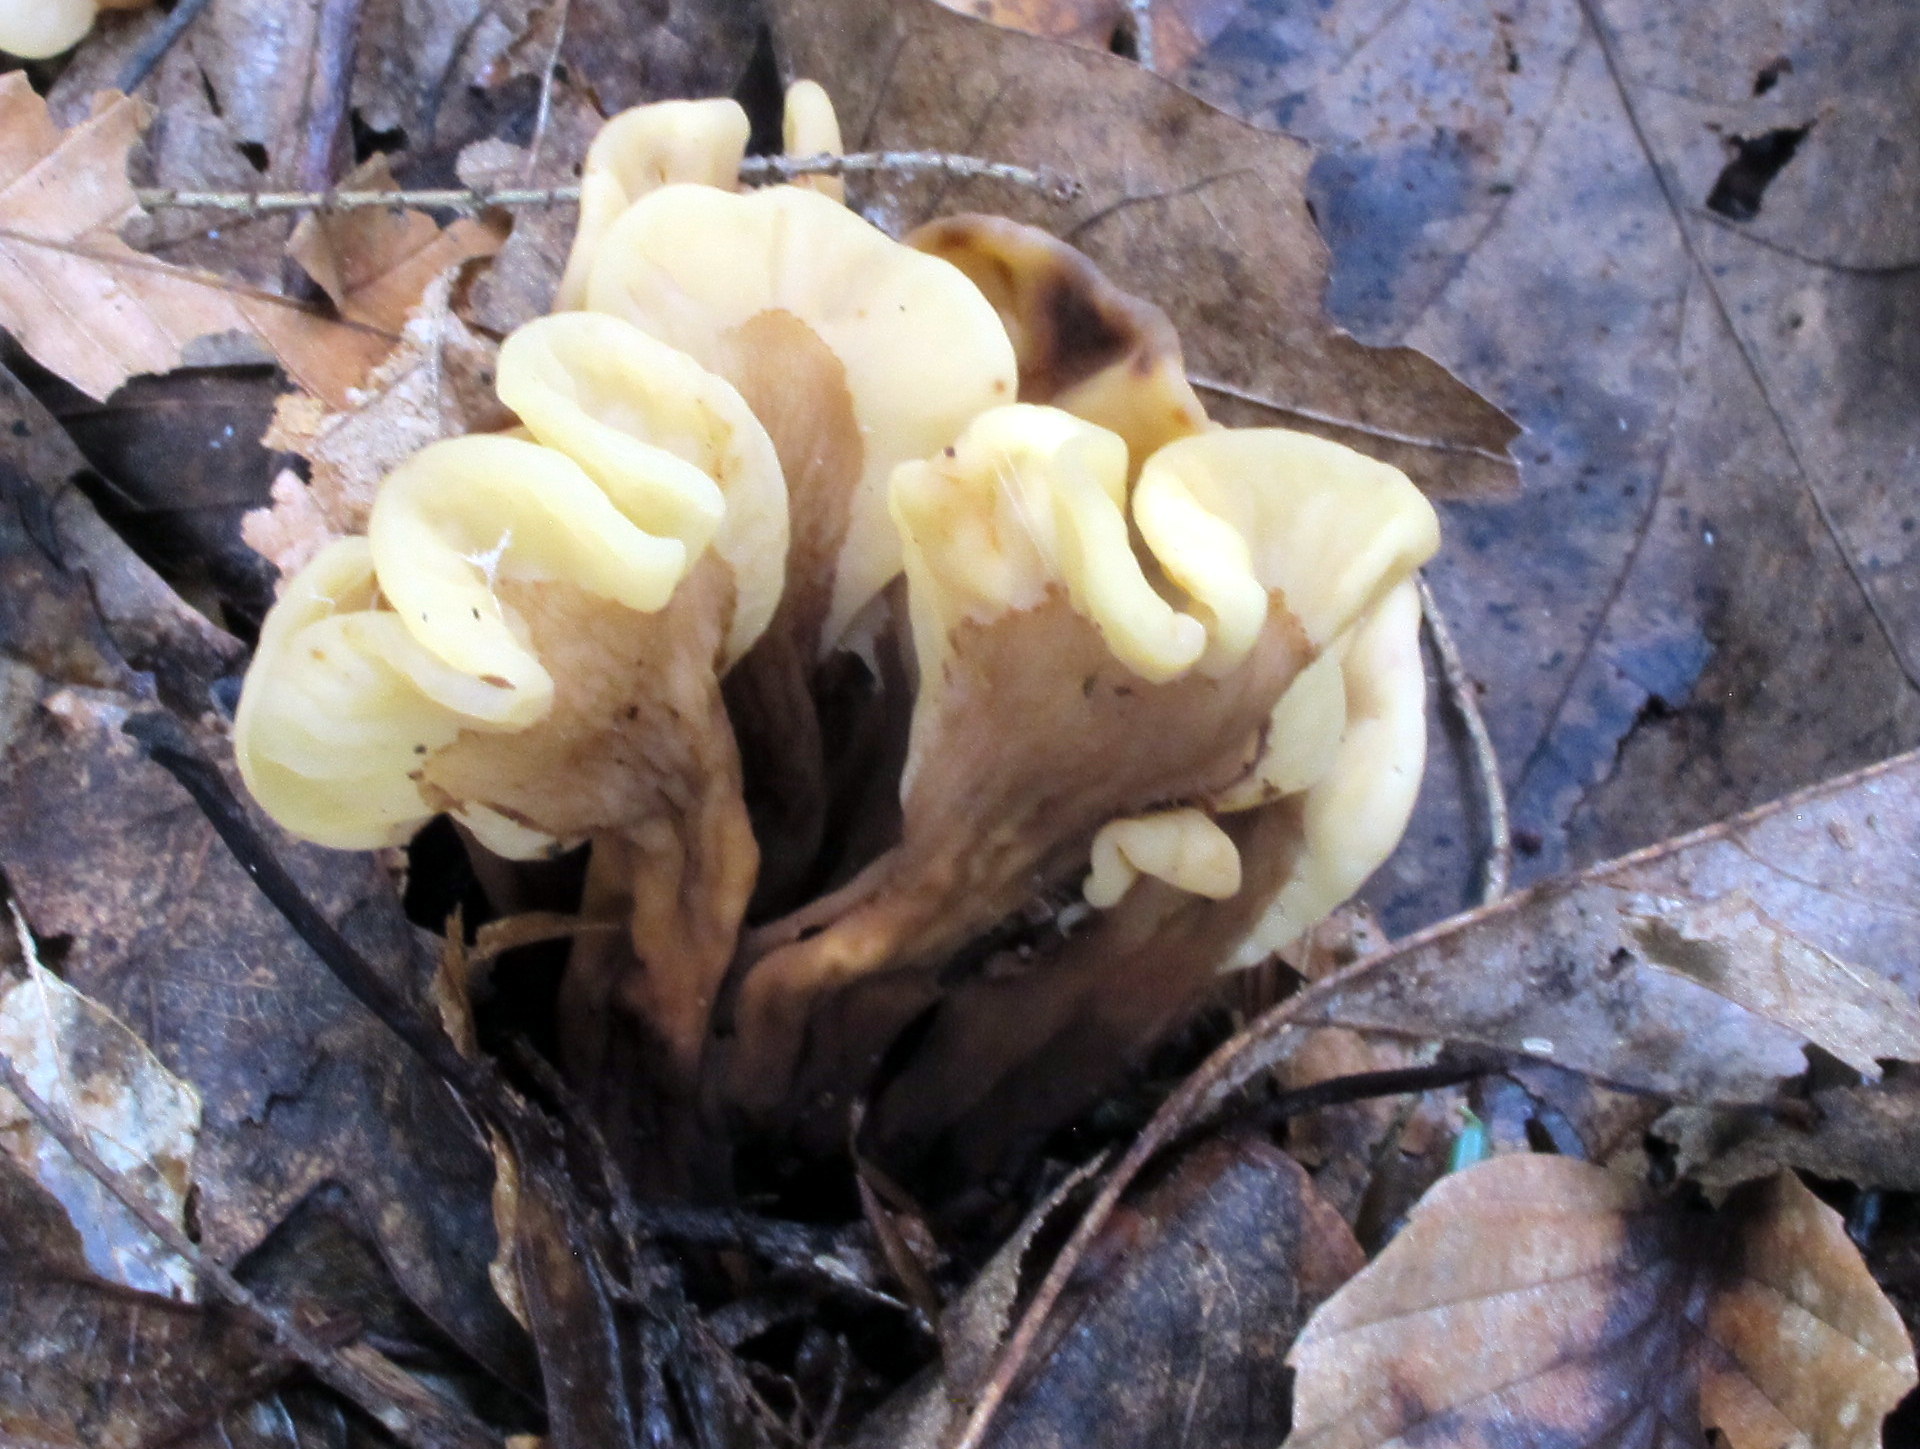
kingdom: Fungi
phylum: Ascomycota
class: Leotiomycetes
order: Rhytismatales
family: Cudoniaceae
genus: Spathulariopsis
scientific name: Spathulariopsis velutipes
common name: Velvet-foot fairy fan
